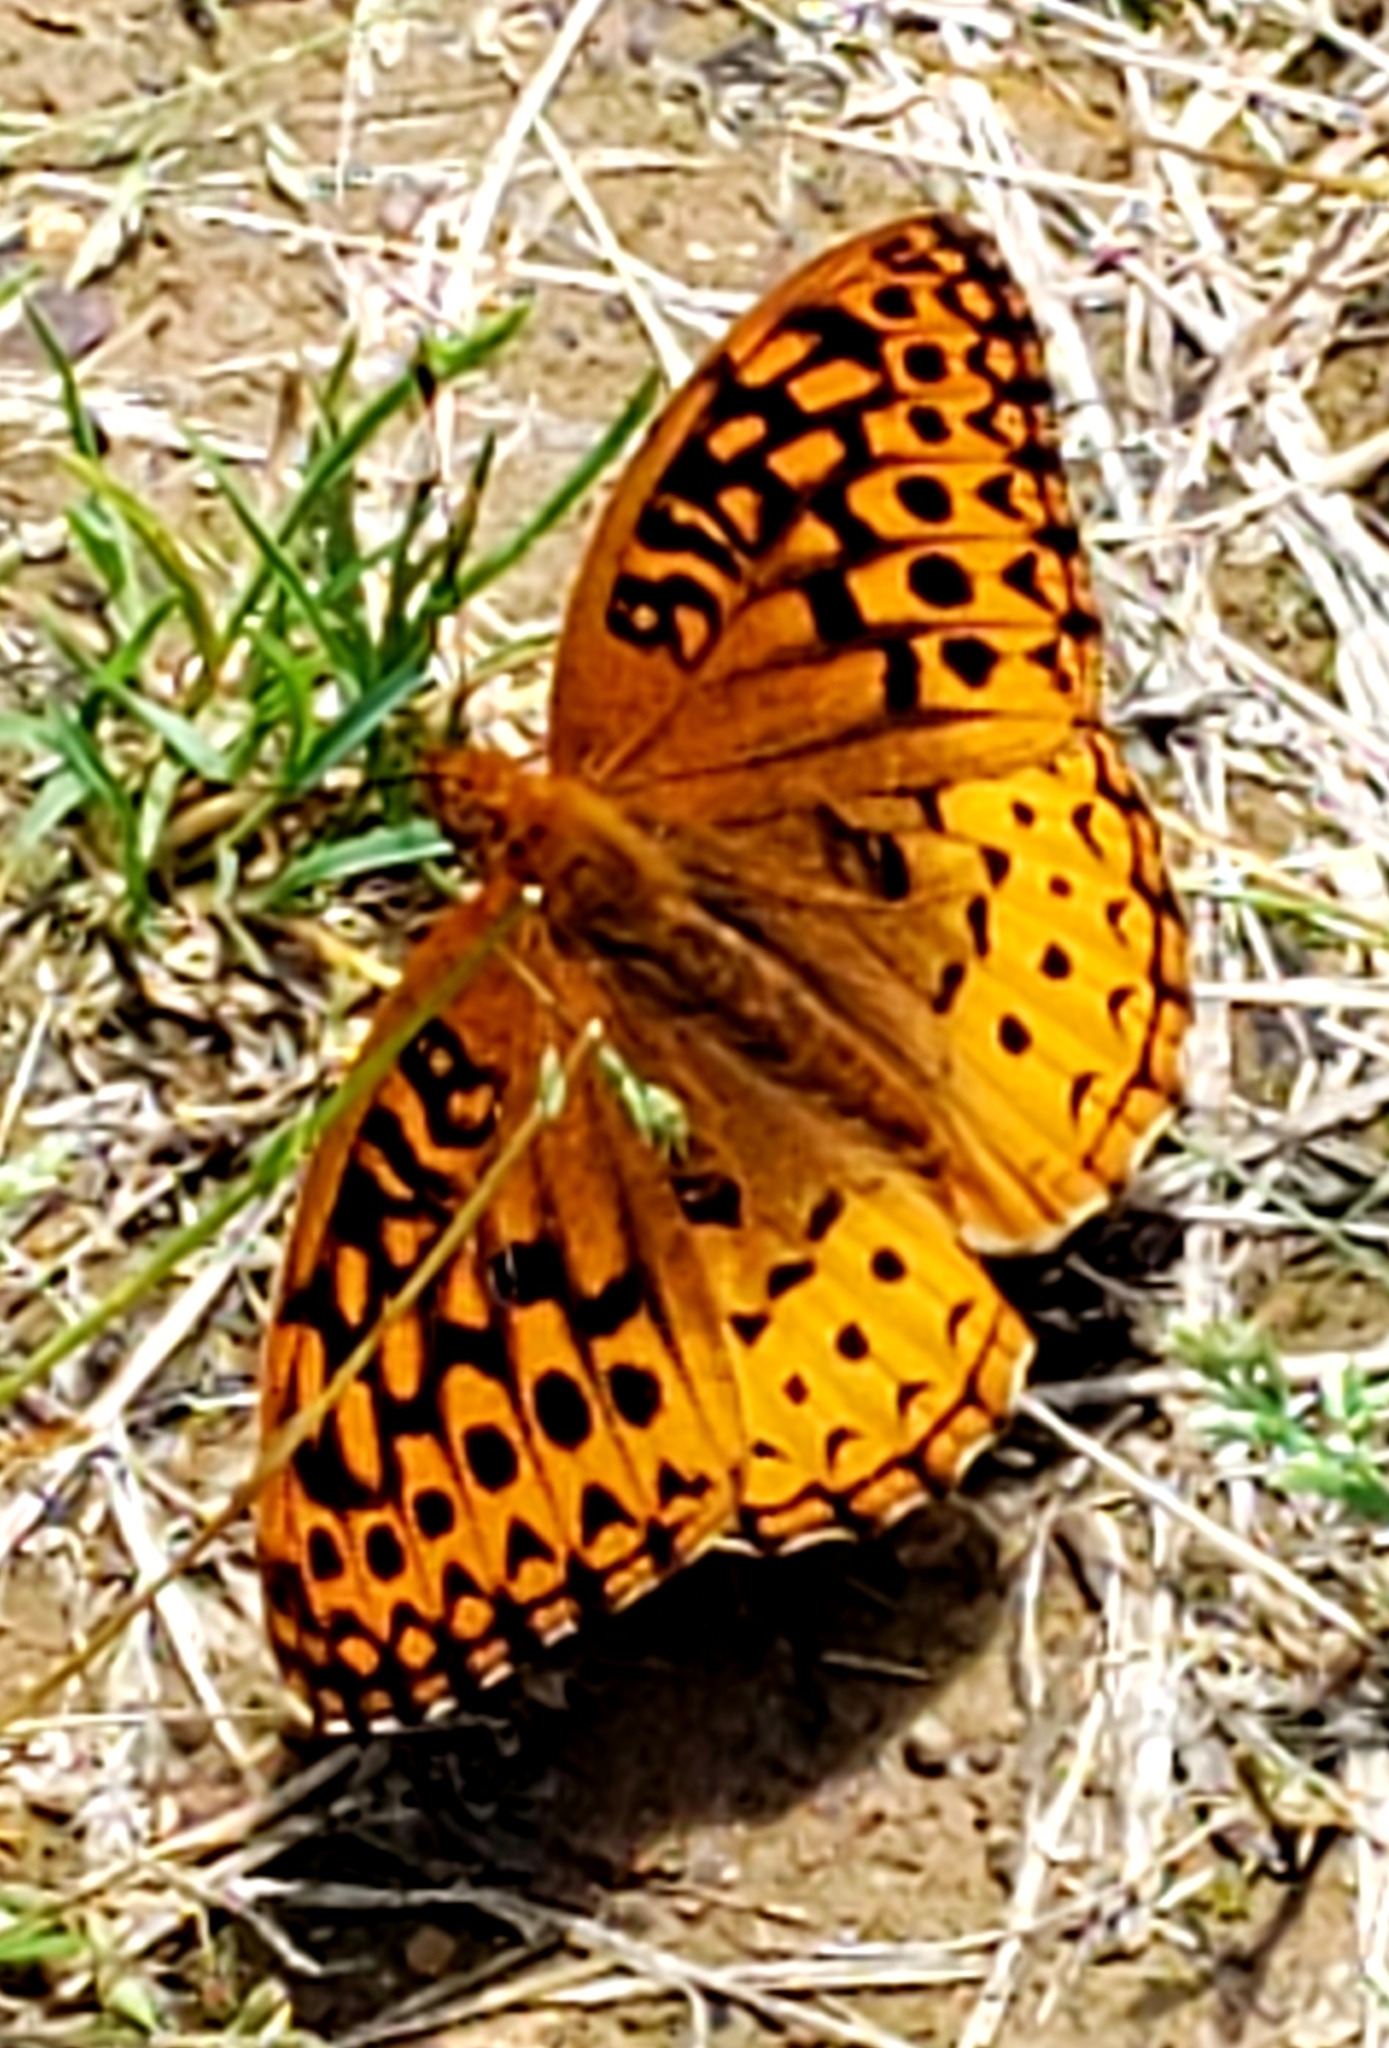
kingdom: Animalia
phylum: Arthropoda
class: Insecta
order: Lepidoptera
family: Nymphalidae
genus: Speyeria
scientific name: Speyeria cybele
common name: Great spangled fritillary
